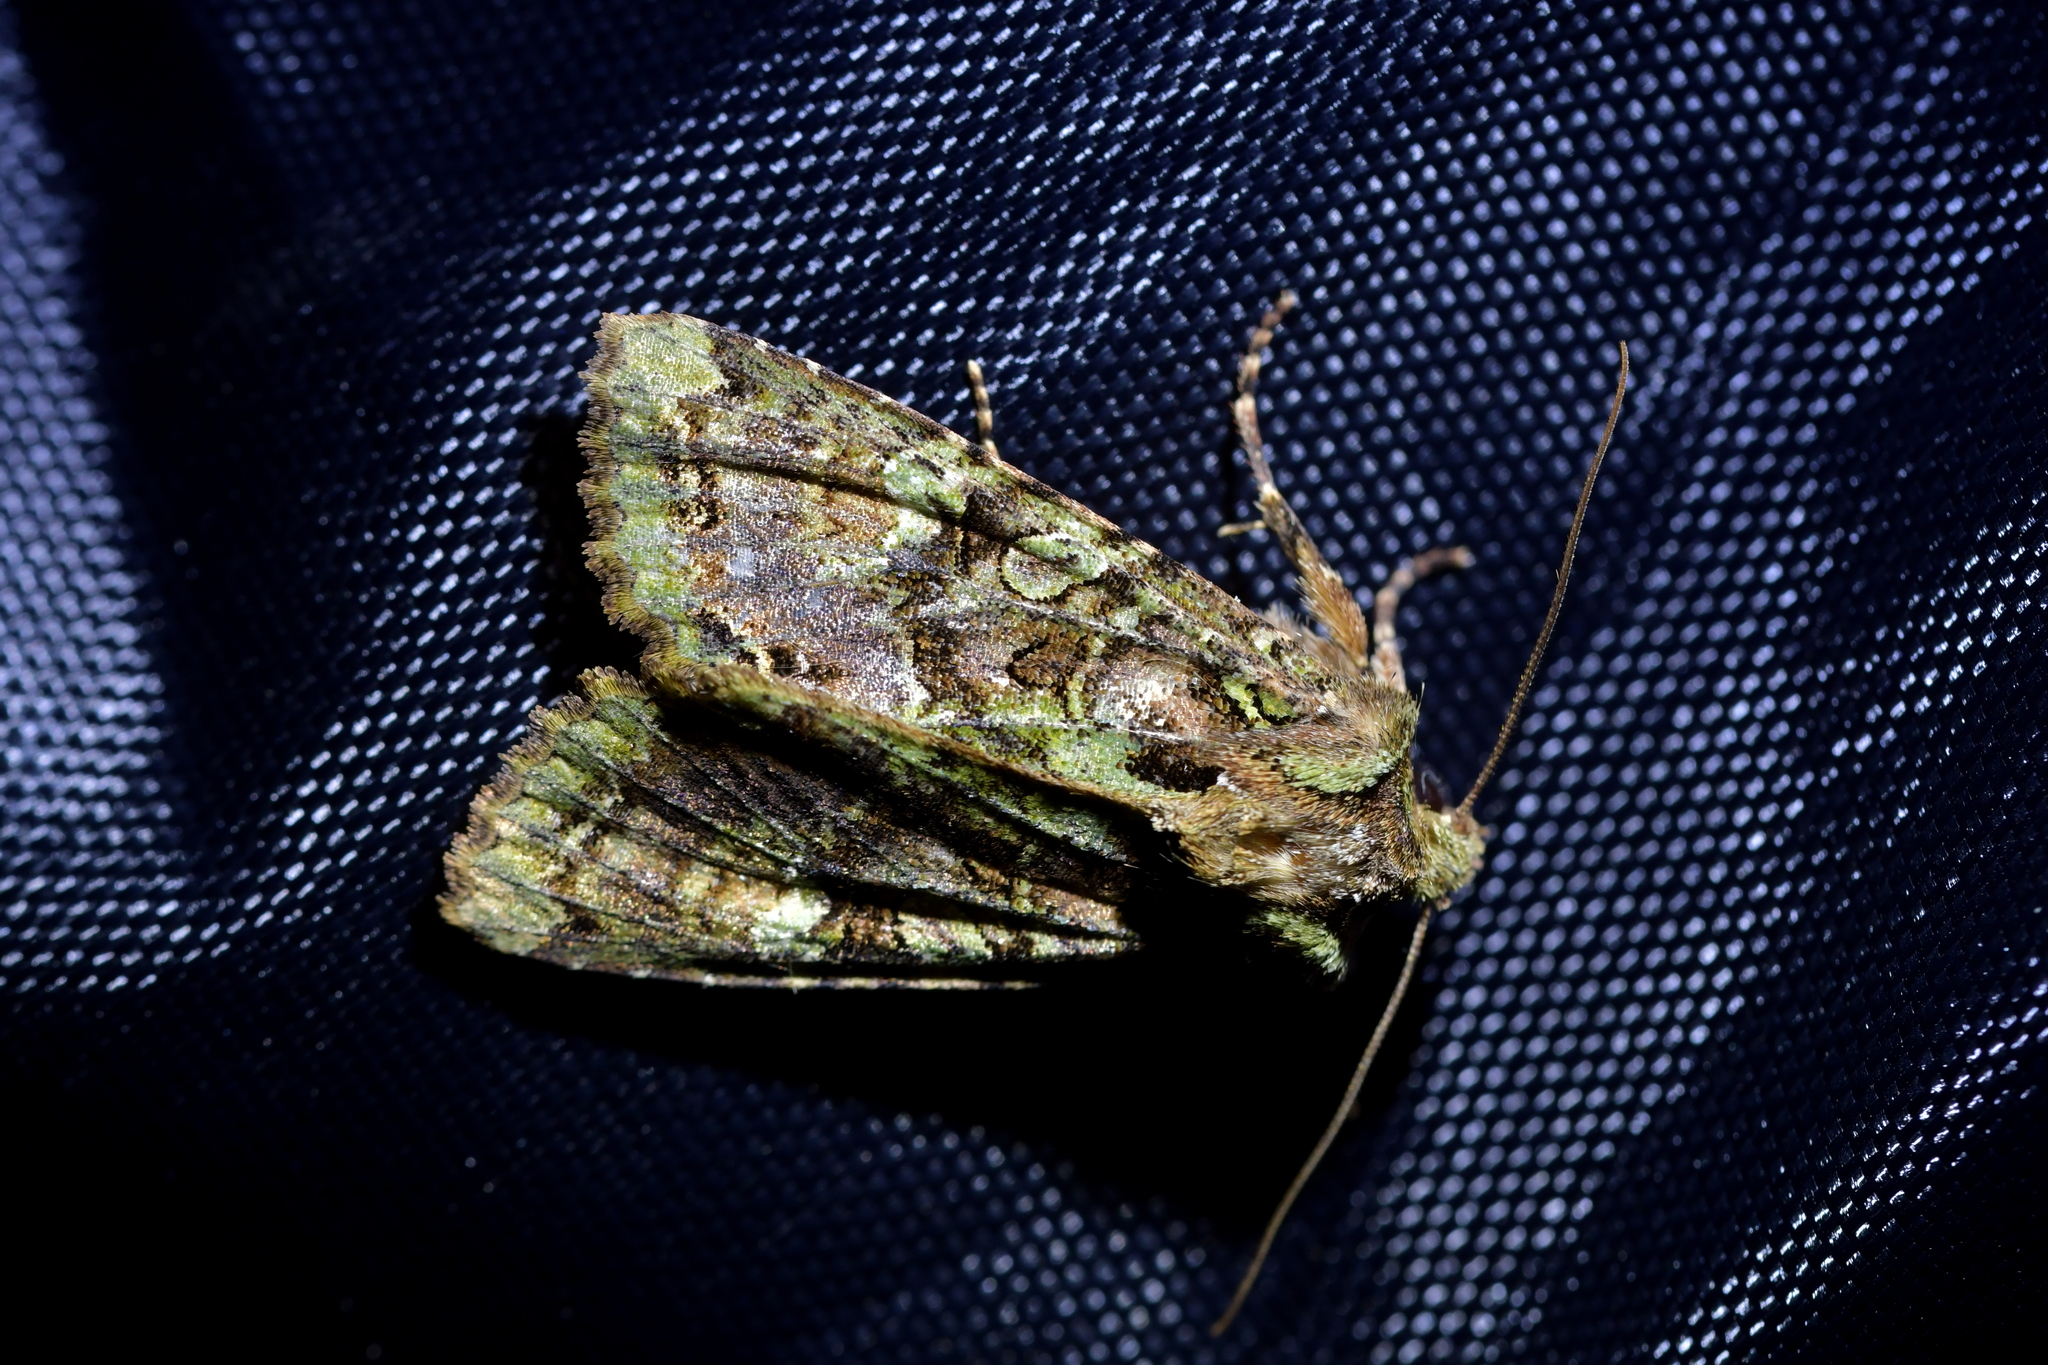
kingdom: Animalia
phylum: Arthropoda
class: Insecta
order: Lepidoptera
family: Noctuidae
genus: Meterana
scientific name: Meterana
